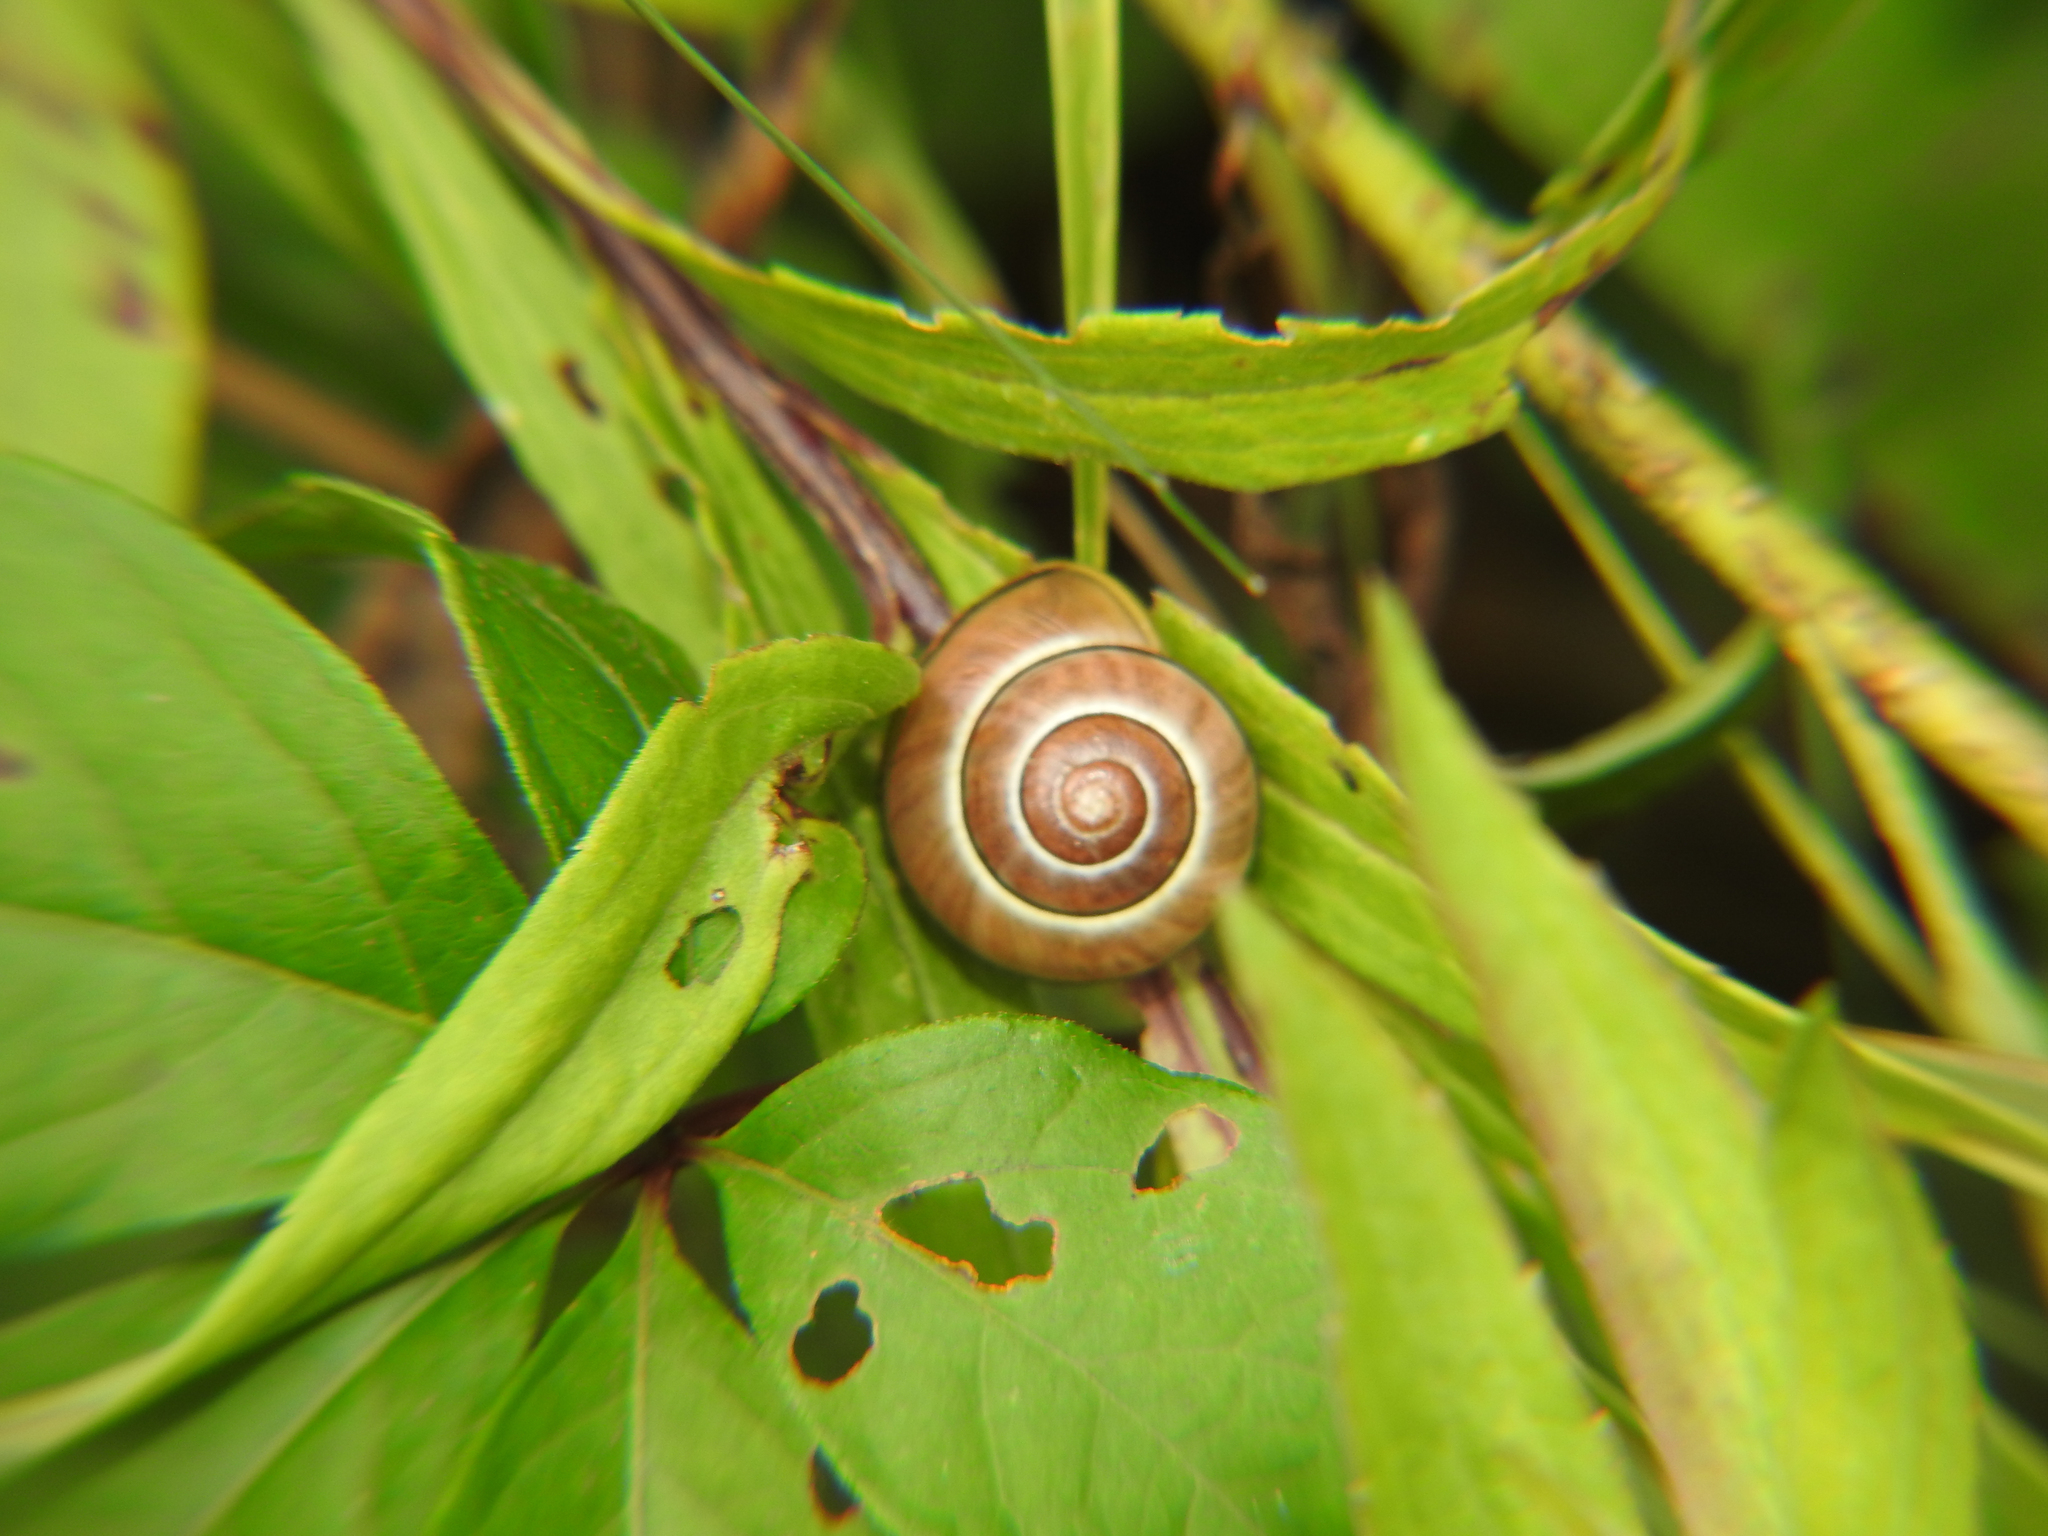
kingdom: Animalia
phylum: Mollusca
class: Gastropoda
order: Stylommatophora
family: Helicidae
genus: Cepaea
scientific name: Cepaea nemoralis
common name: Grovesnail
